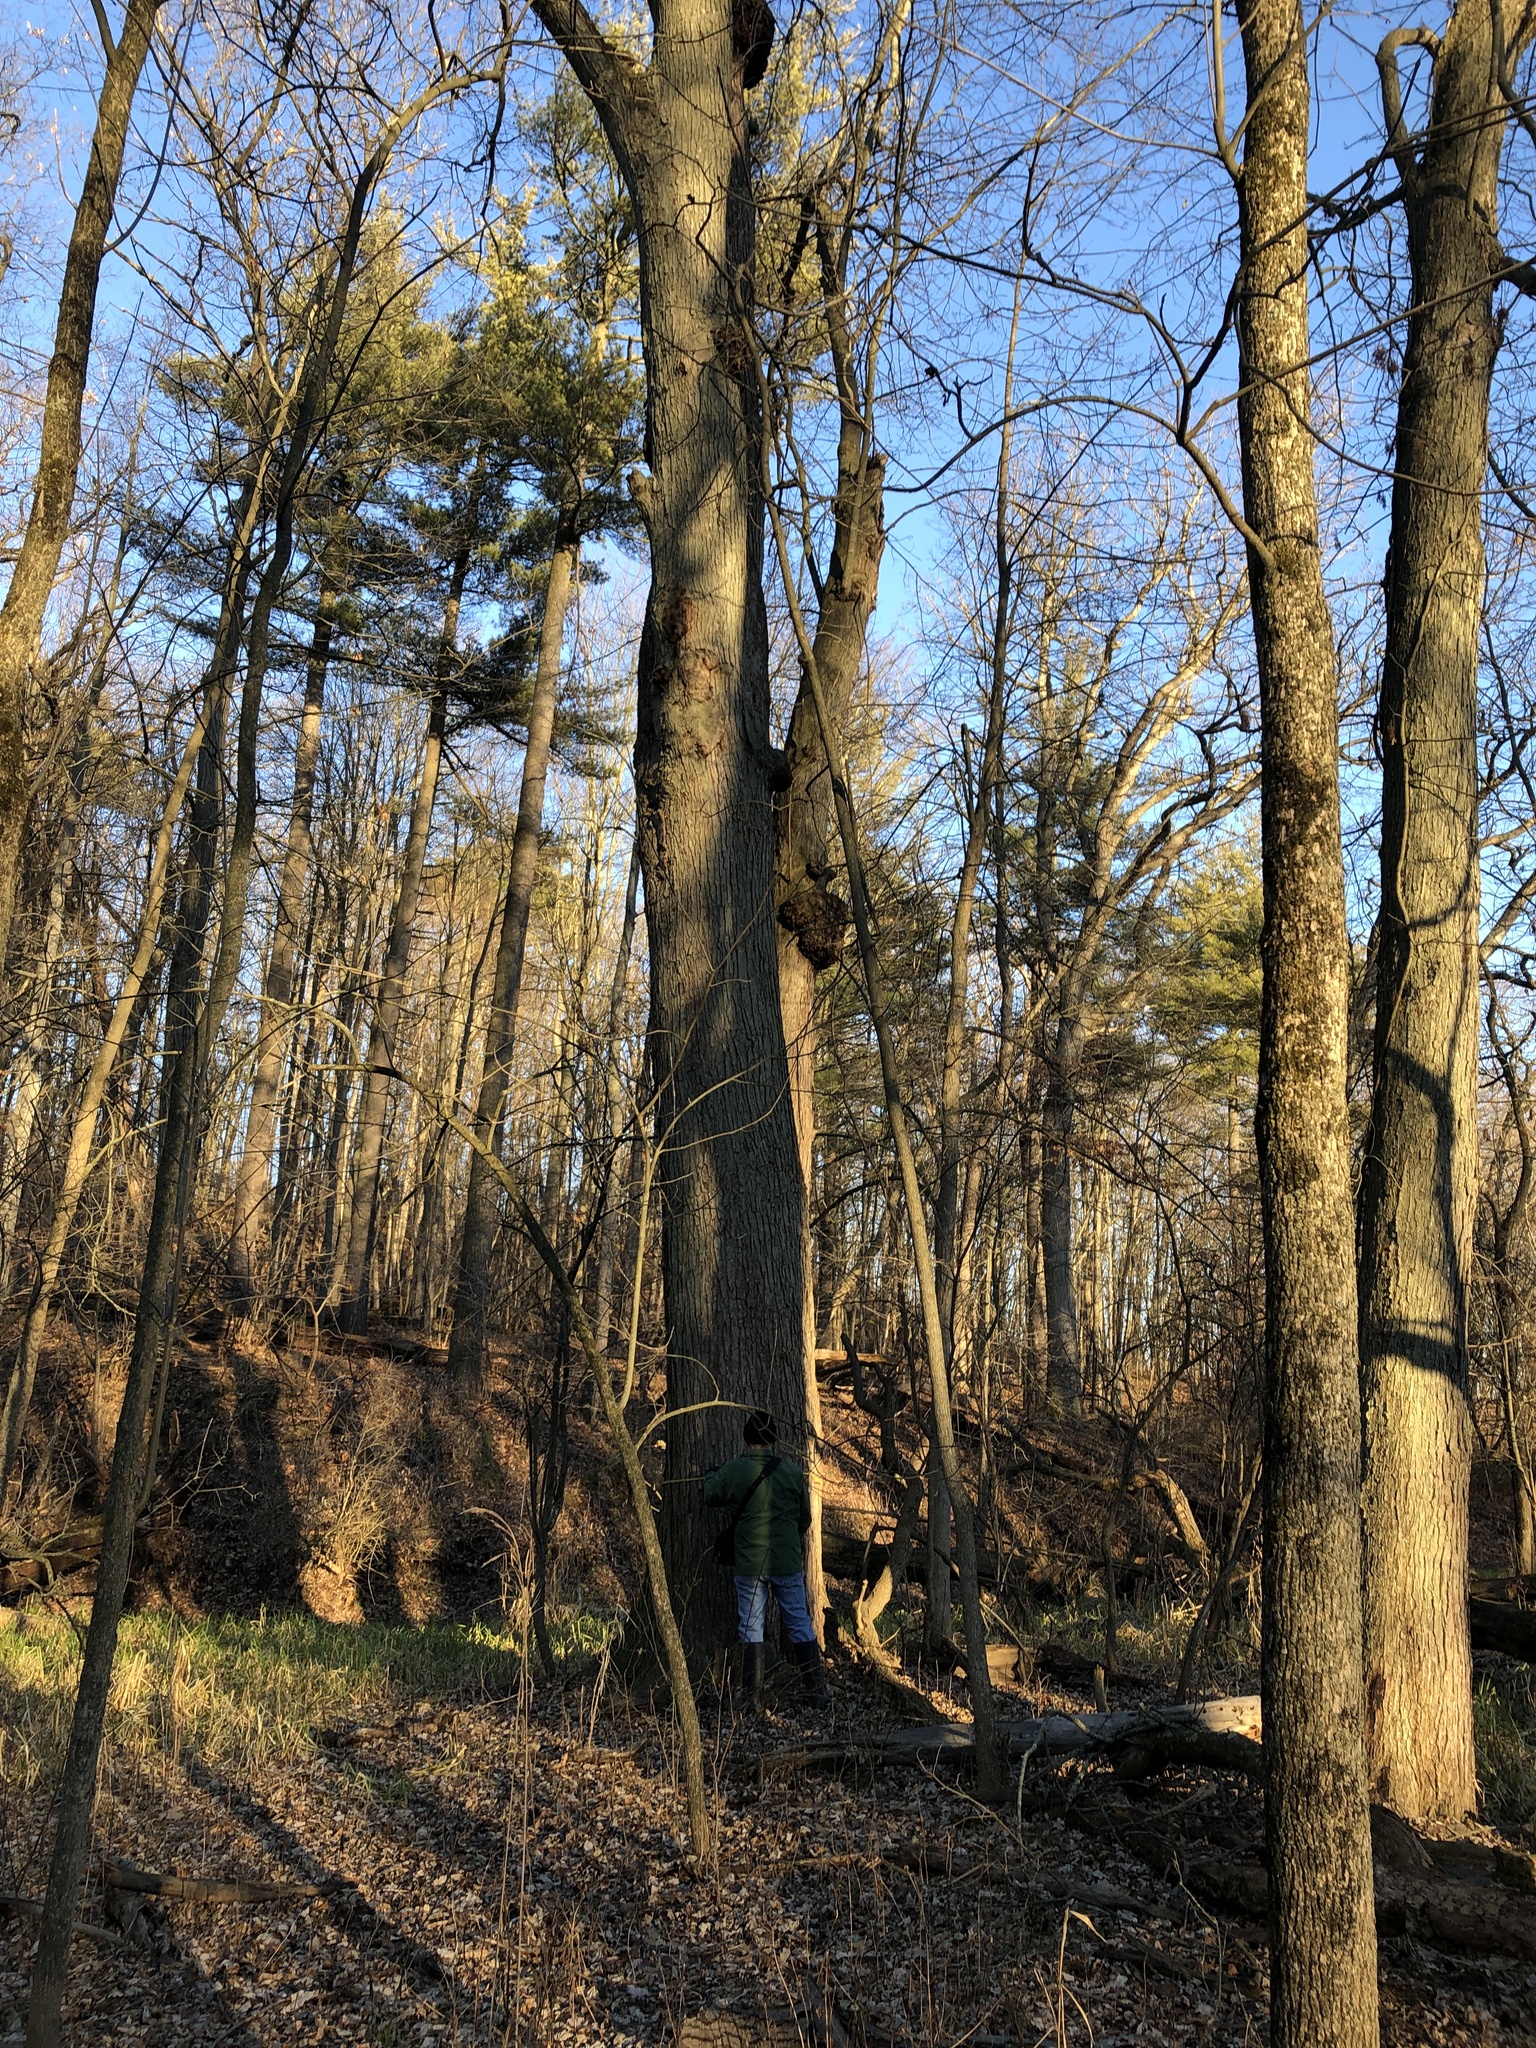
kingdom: Plantae
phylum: Tracheophyta
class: Magnoliopsida
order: Sapindales
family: Sapindaceae
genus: Acer
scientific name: Acer saccharinum
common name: Silver maple
